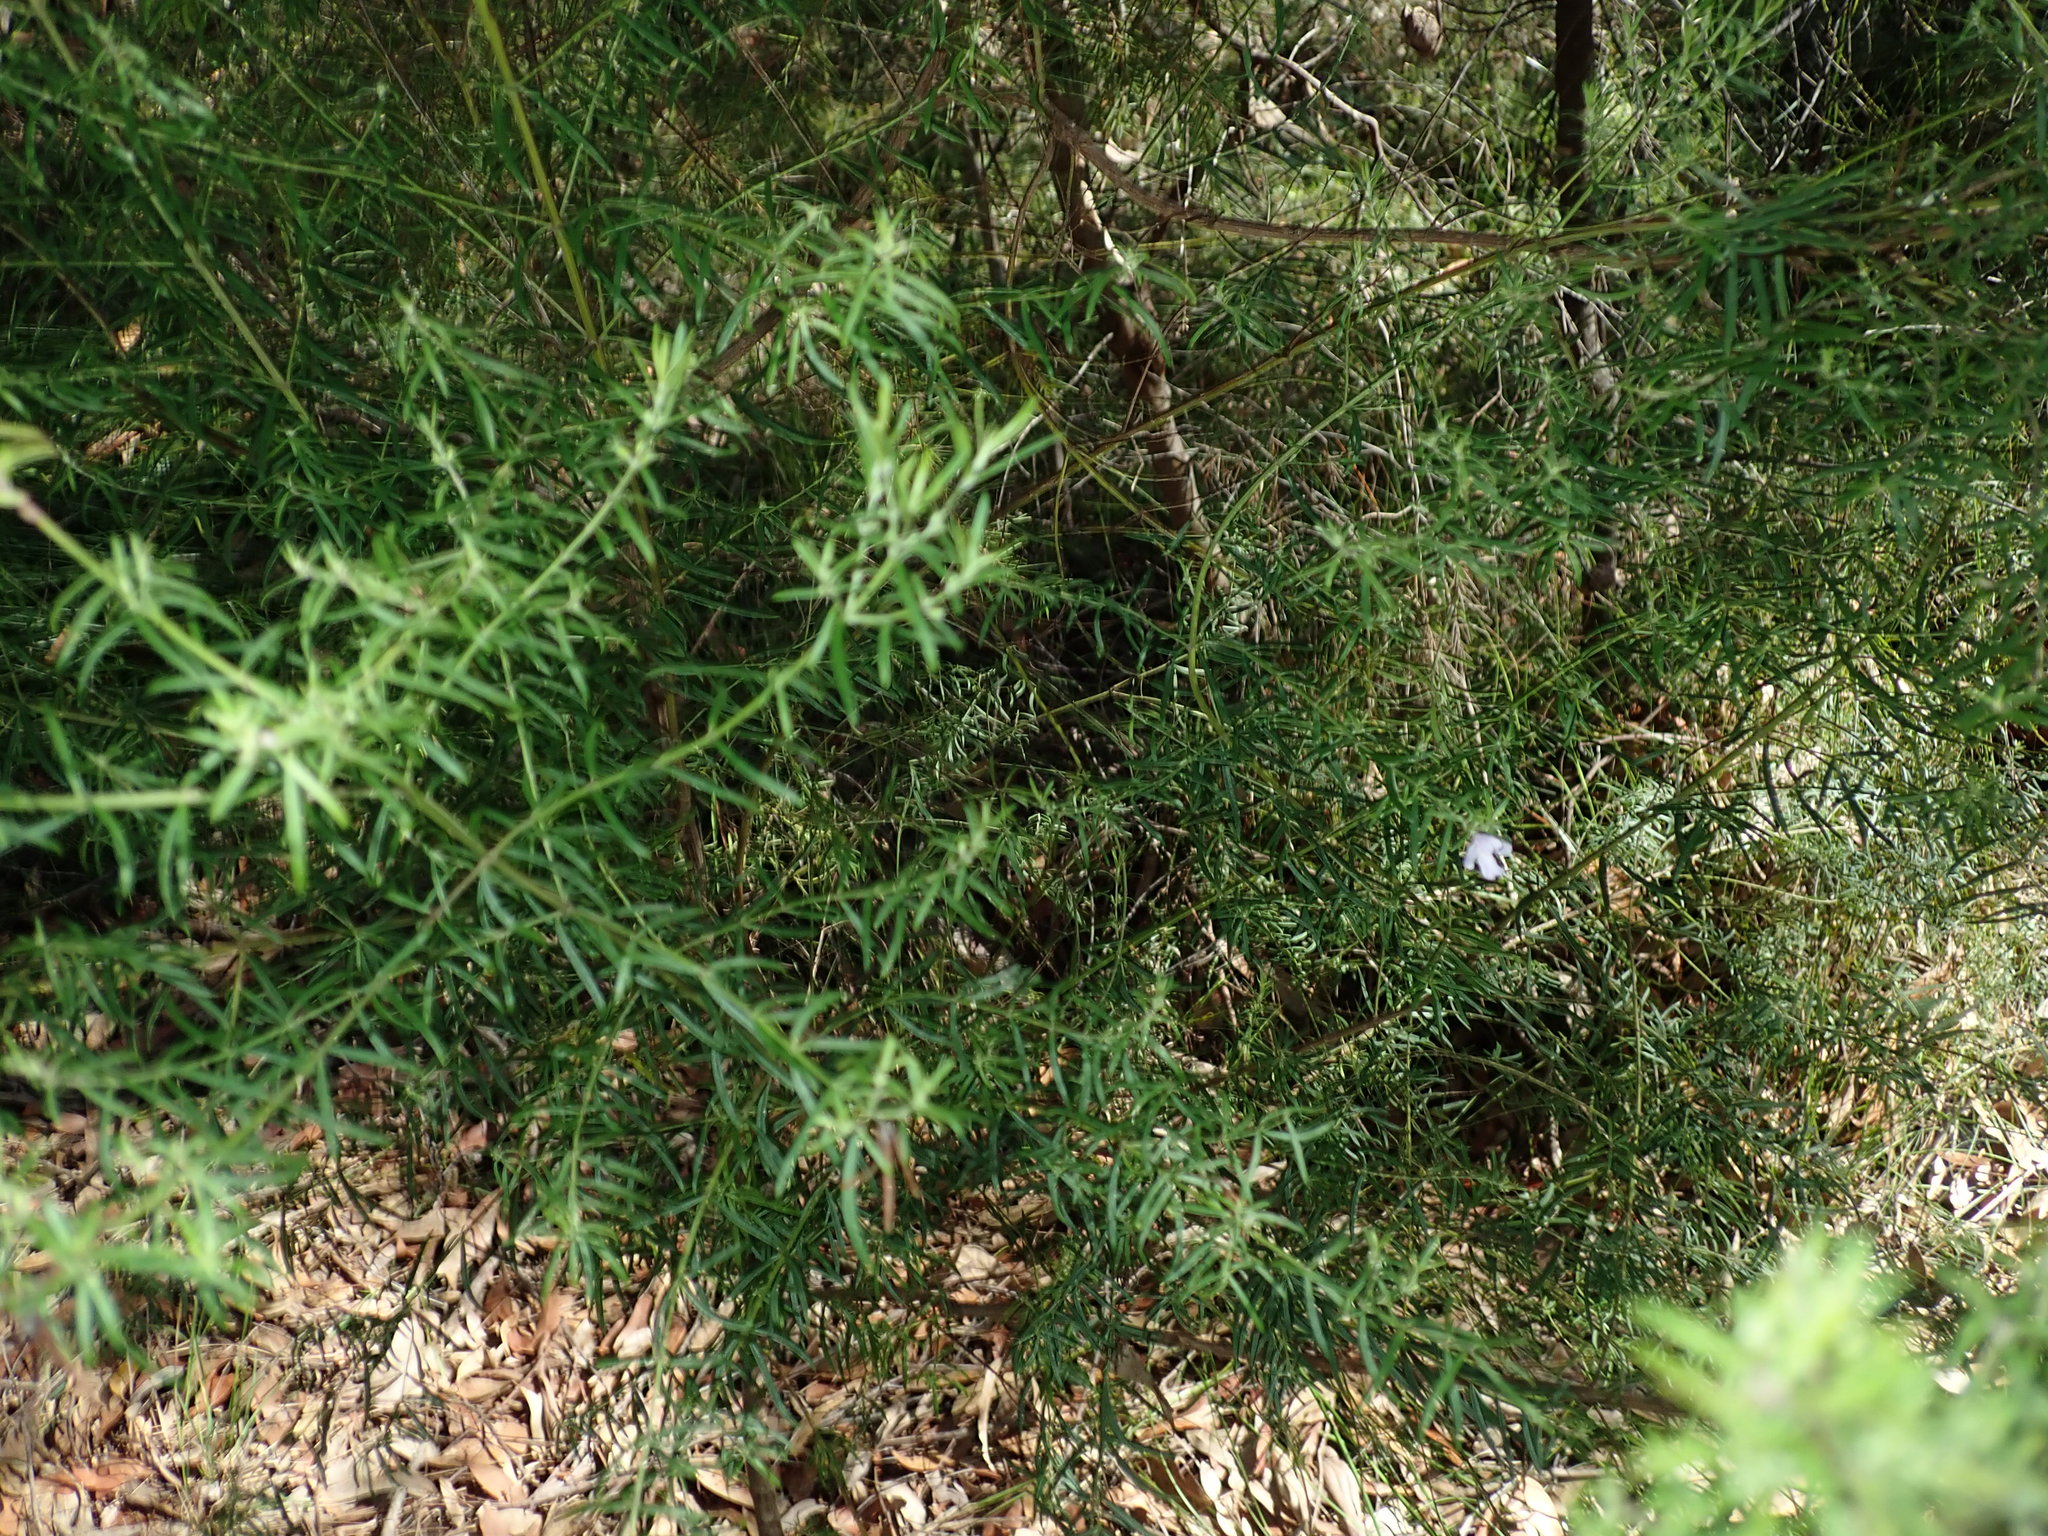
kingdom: Plantae
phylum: Tracheophyta
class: Magnoliopsida
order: Lamiales
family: Lamiaceae
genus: Westringia
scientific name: Westringia longifolia
